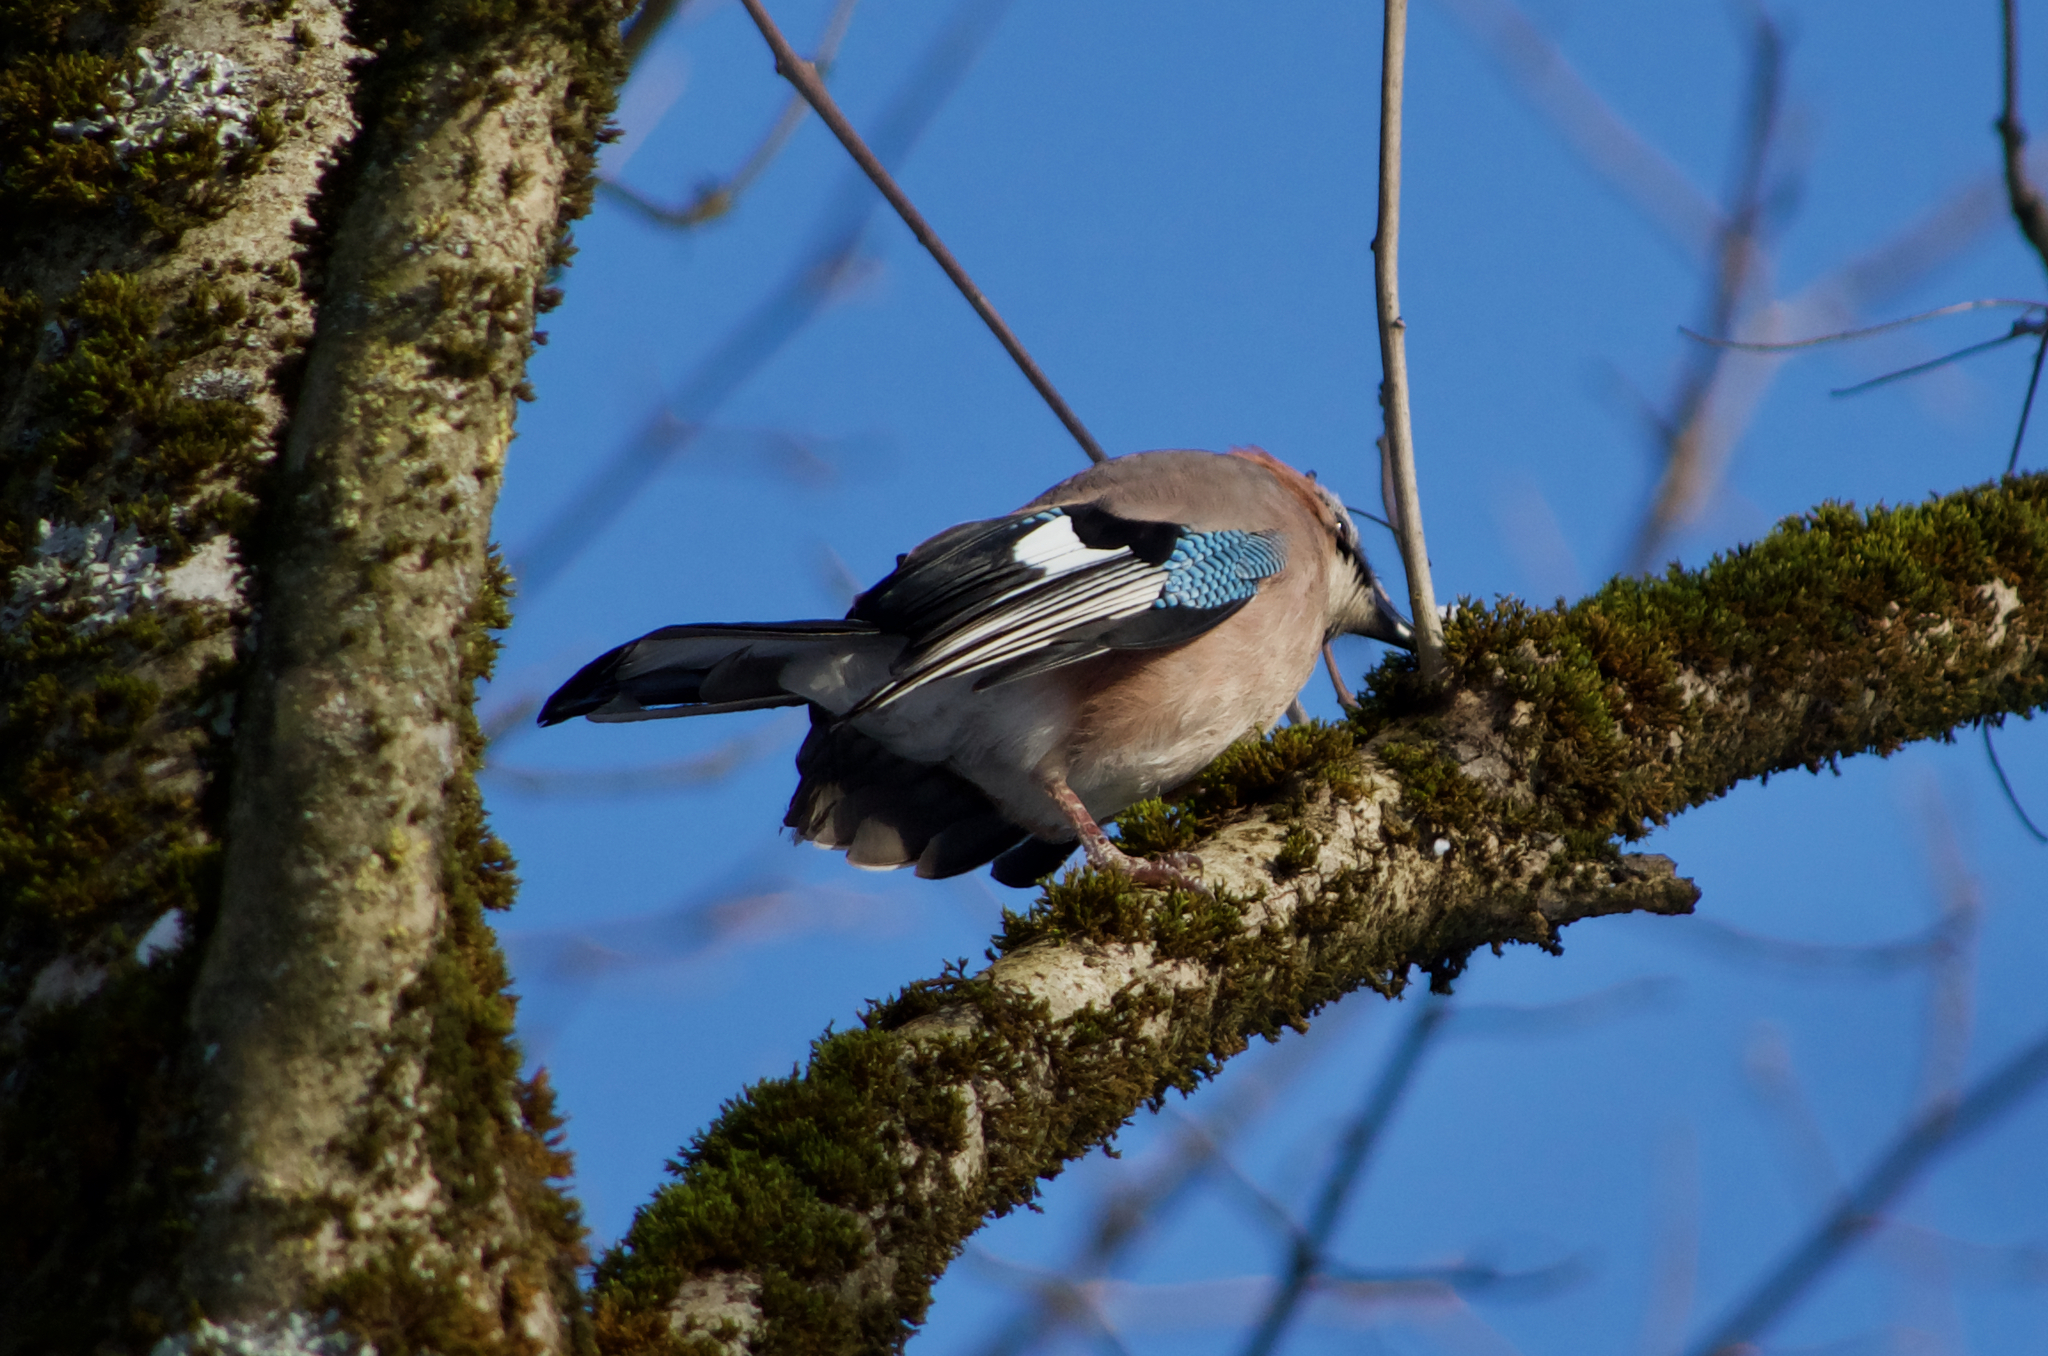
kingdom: Animalia
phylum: Chordata
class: Aves
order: Passeriformes
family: Corvidae
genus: Garrulus
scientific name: Garrulus glandarius
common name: Eurasian jay
